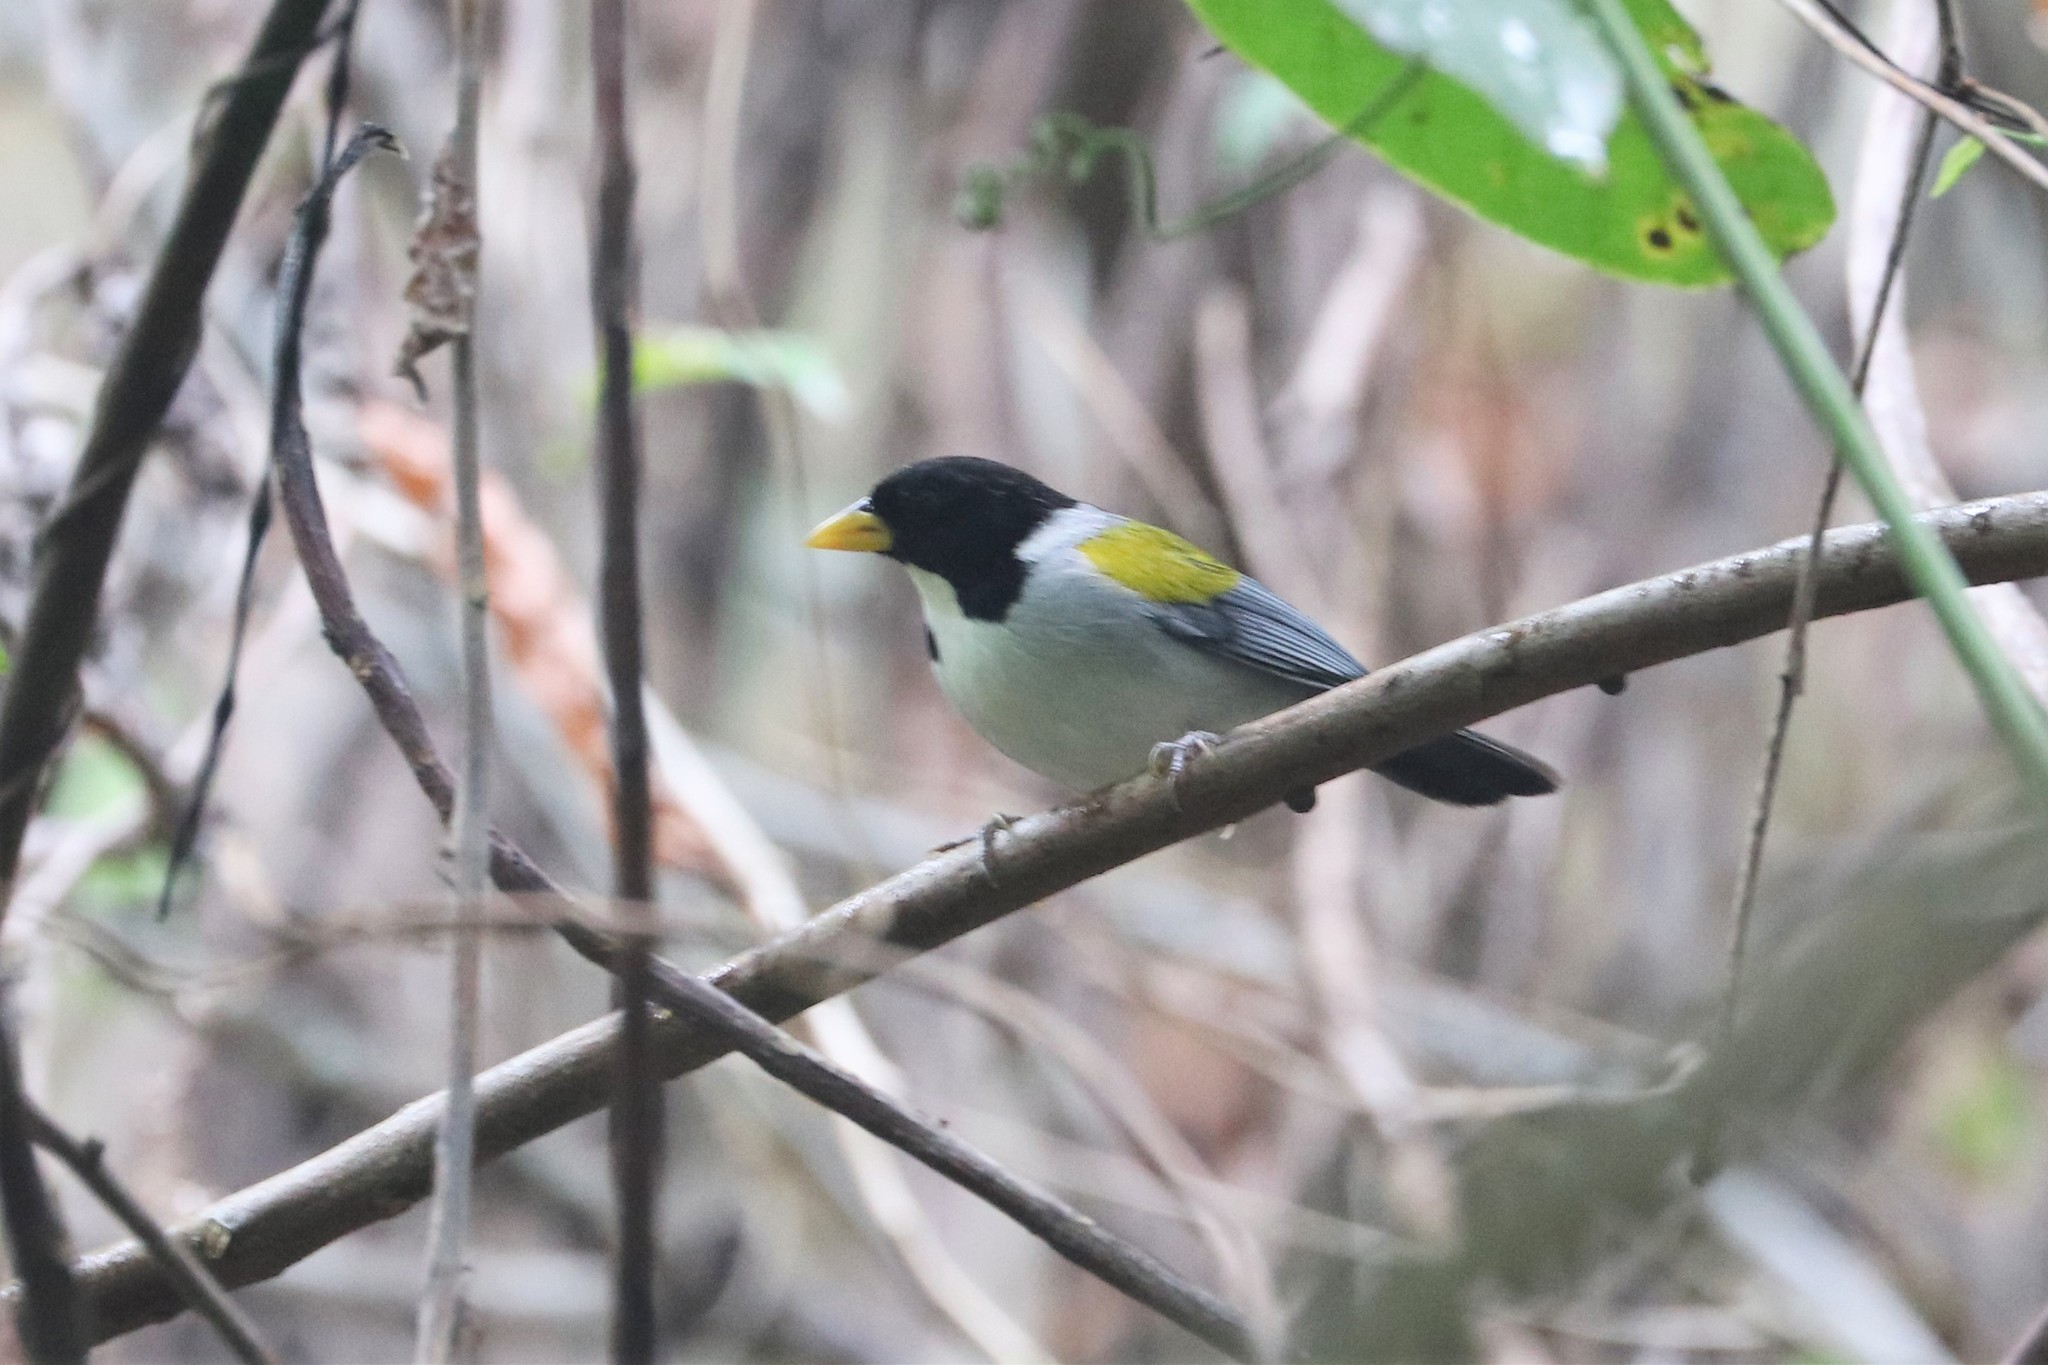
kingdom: Animalia
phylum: Chordata
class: Aves
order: Passeriformes
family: Passerellidae
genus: Arremon
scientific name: Arremon schlegeli
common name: Golden-winged sparrow
